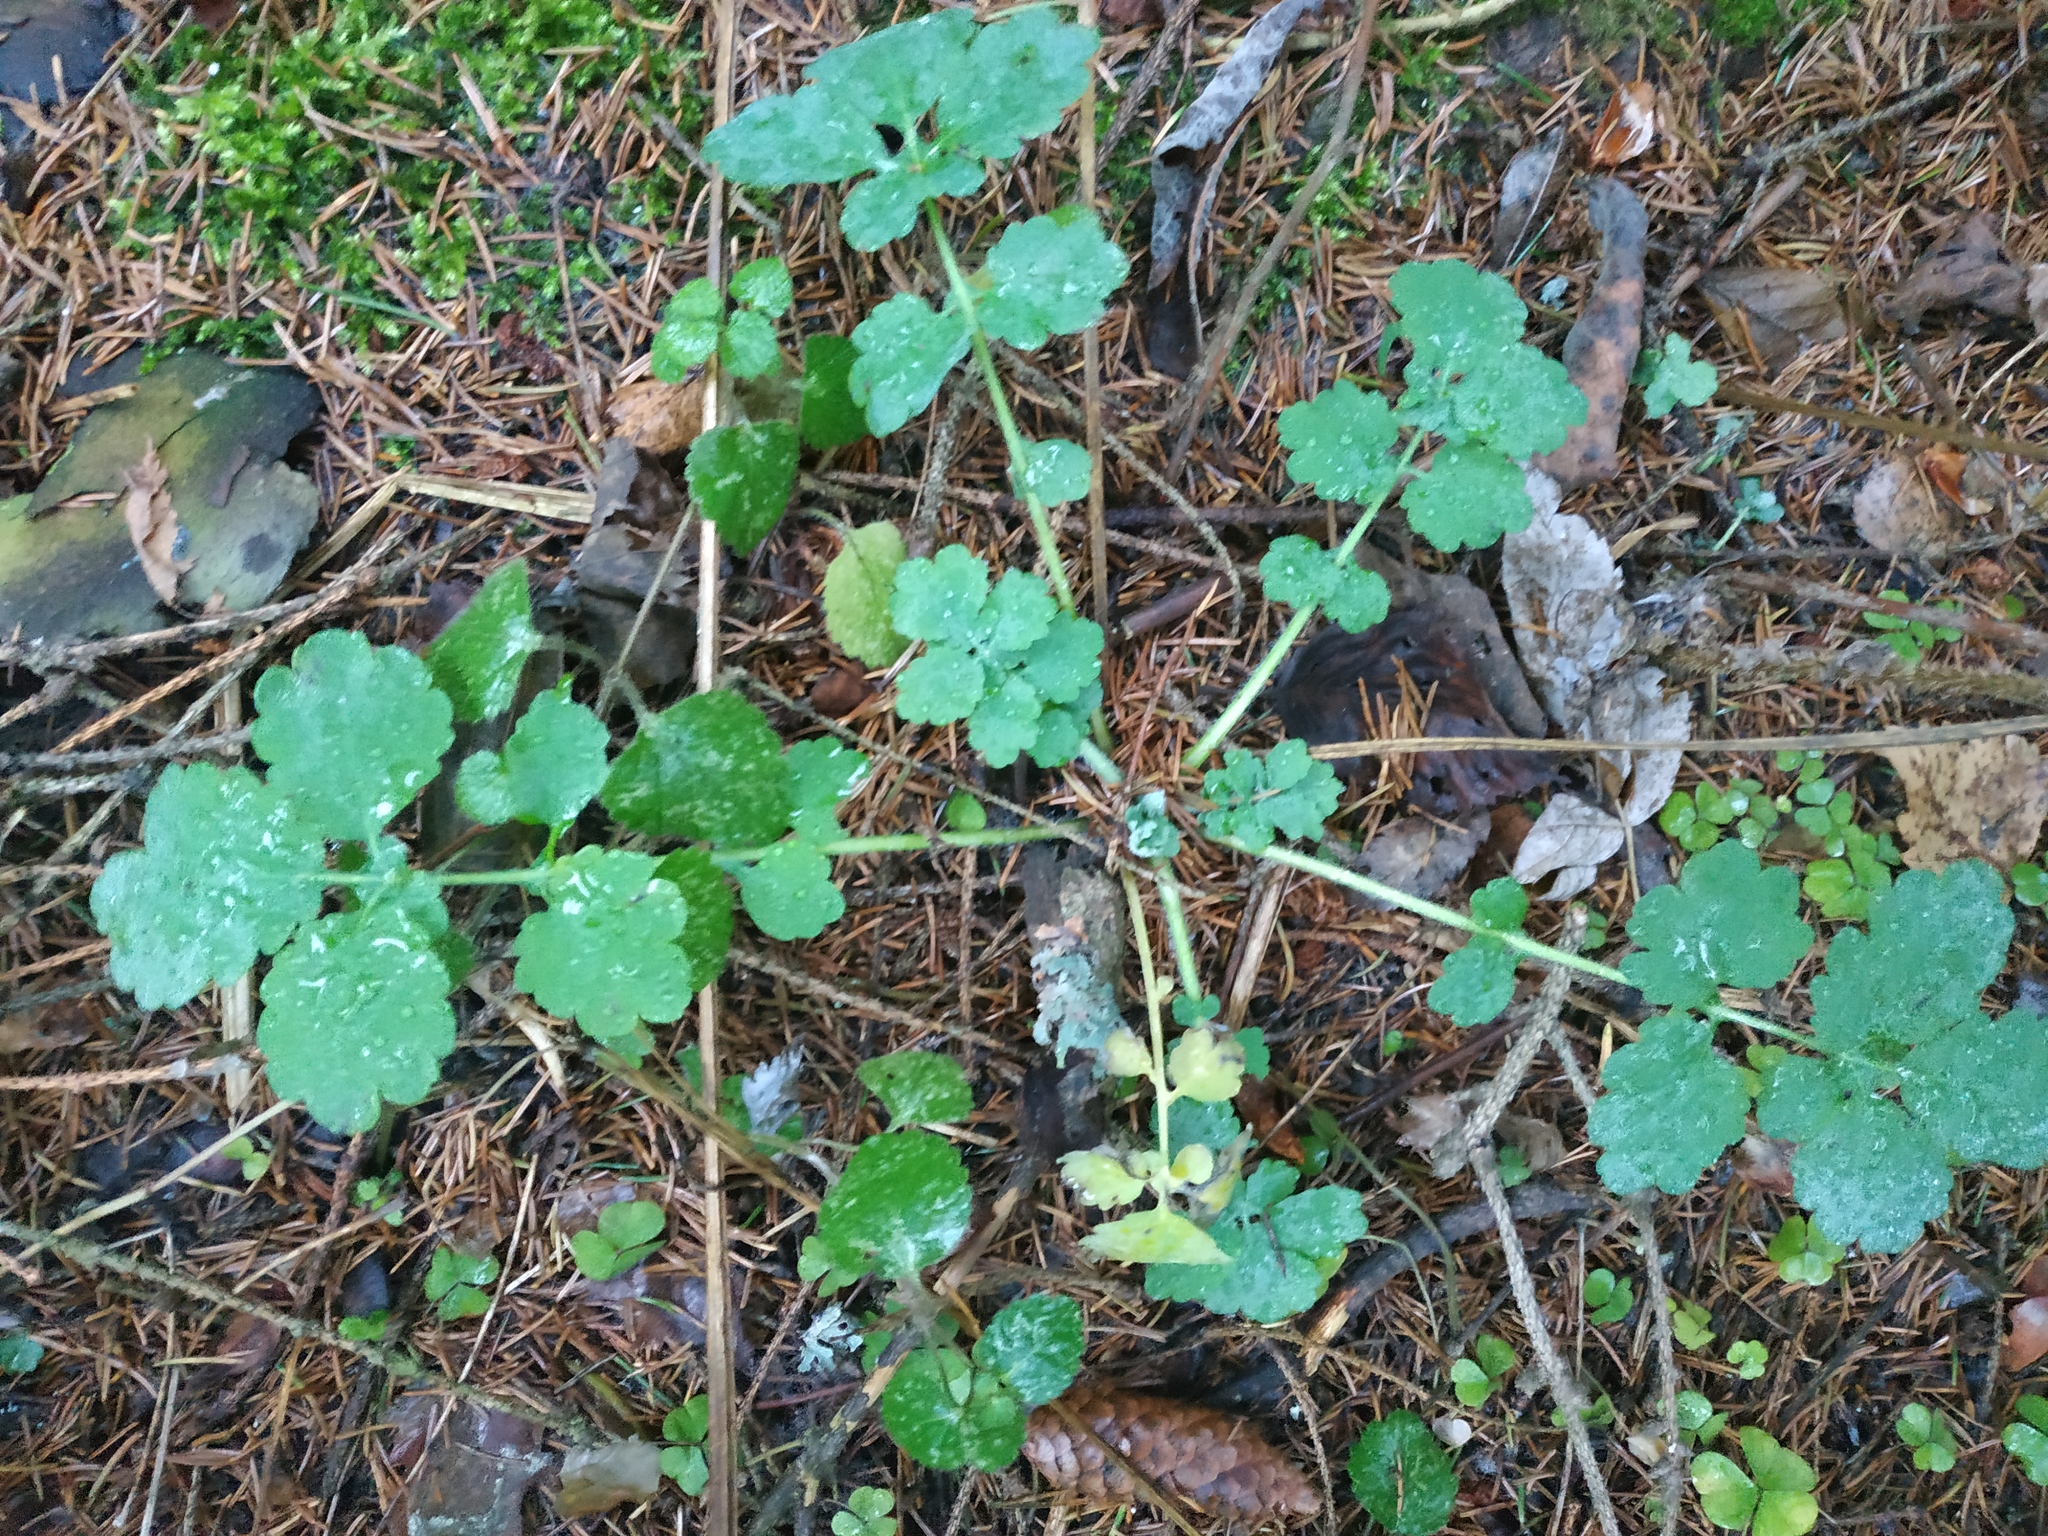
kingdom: Plantae
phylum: Tracheophyta
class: Magnoliopsida
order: Ranunculales
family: Papaveraceae
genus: Chelidonium
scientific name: Chelidonium majus
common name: Greater celandine
